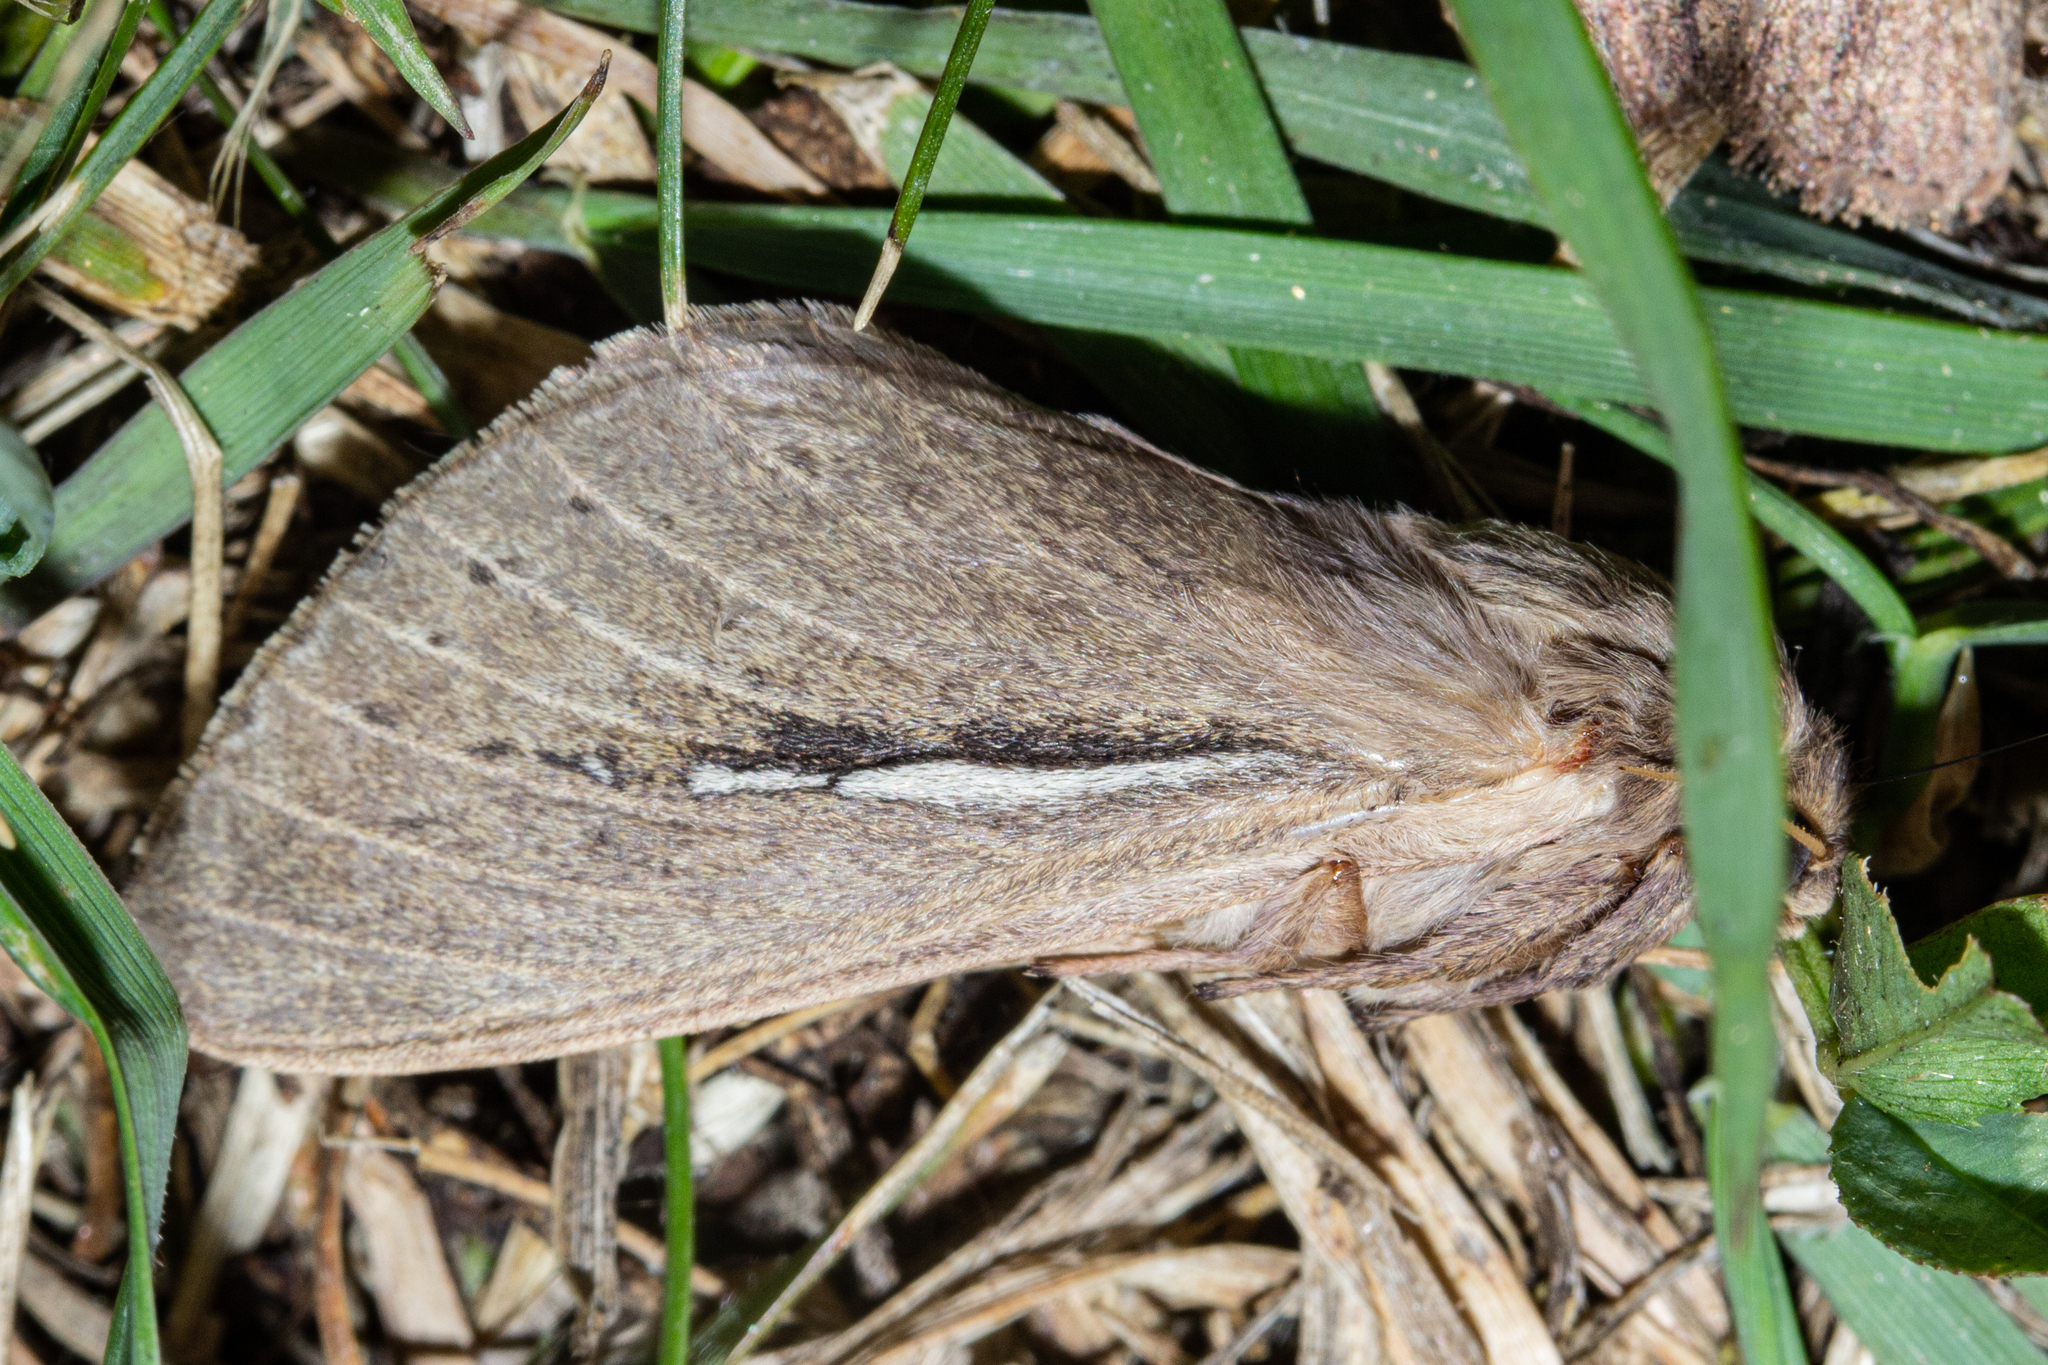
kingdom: Animalia
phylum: Arthropoda
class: Insecta
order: Lepidoptera
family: Hepialidae
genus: Wiseana
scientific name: Wiseana umbraculatus
